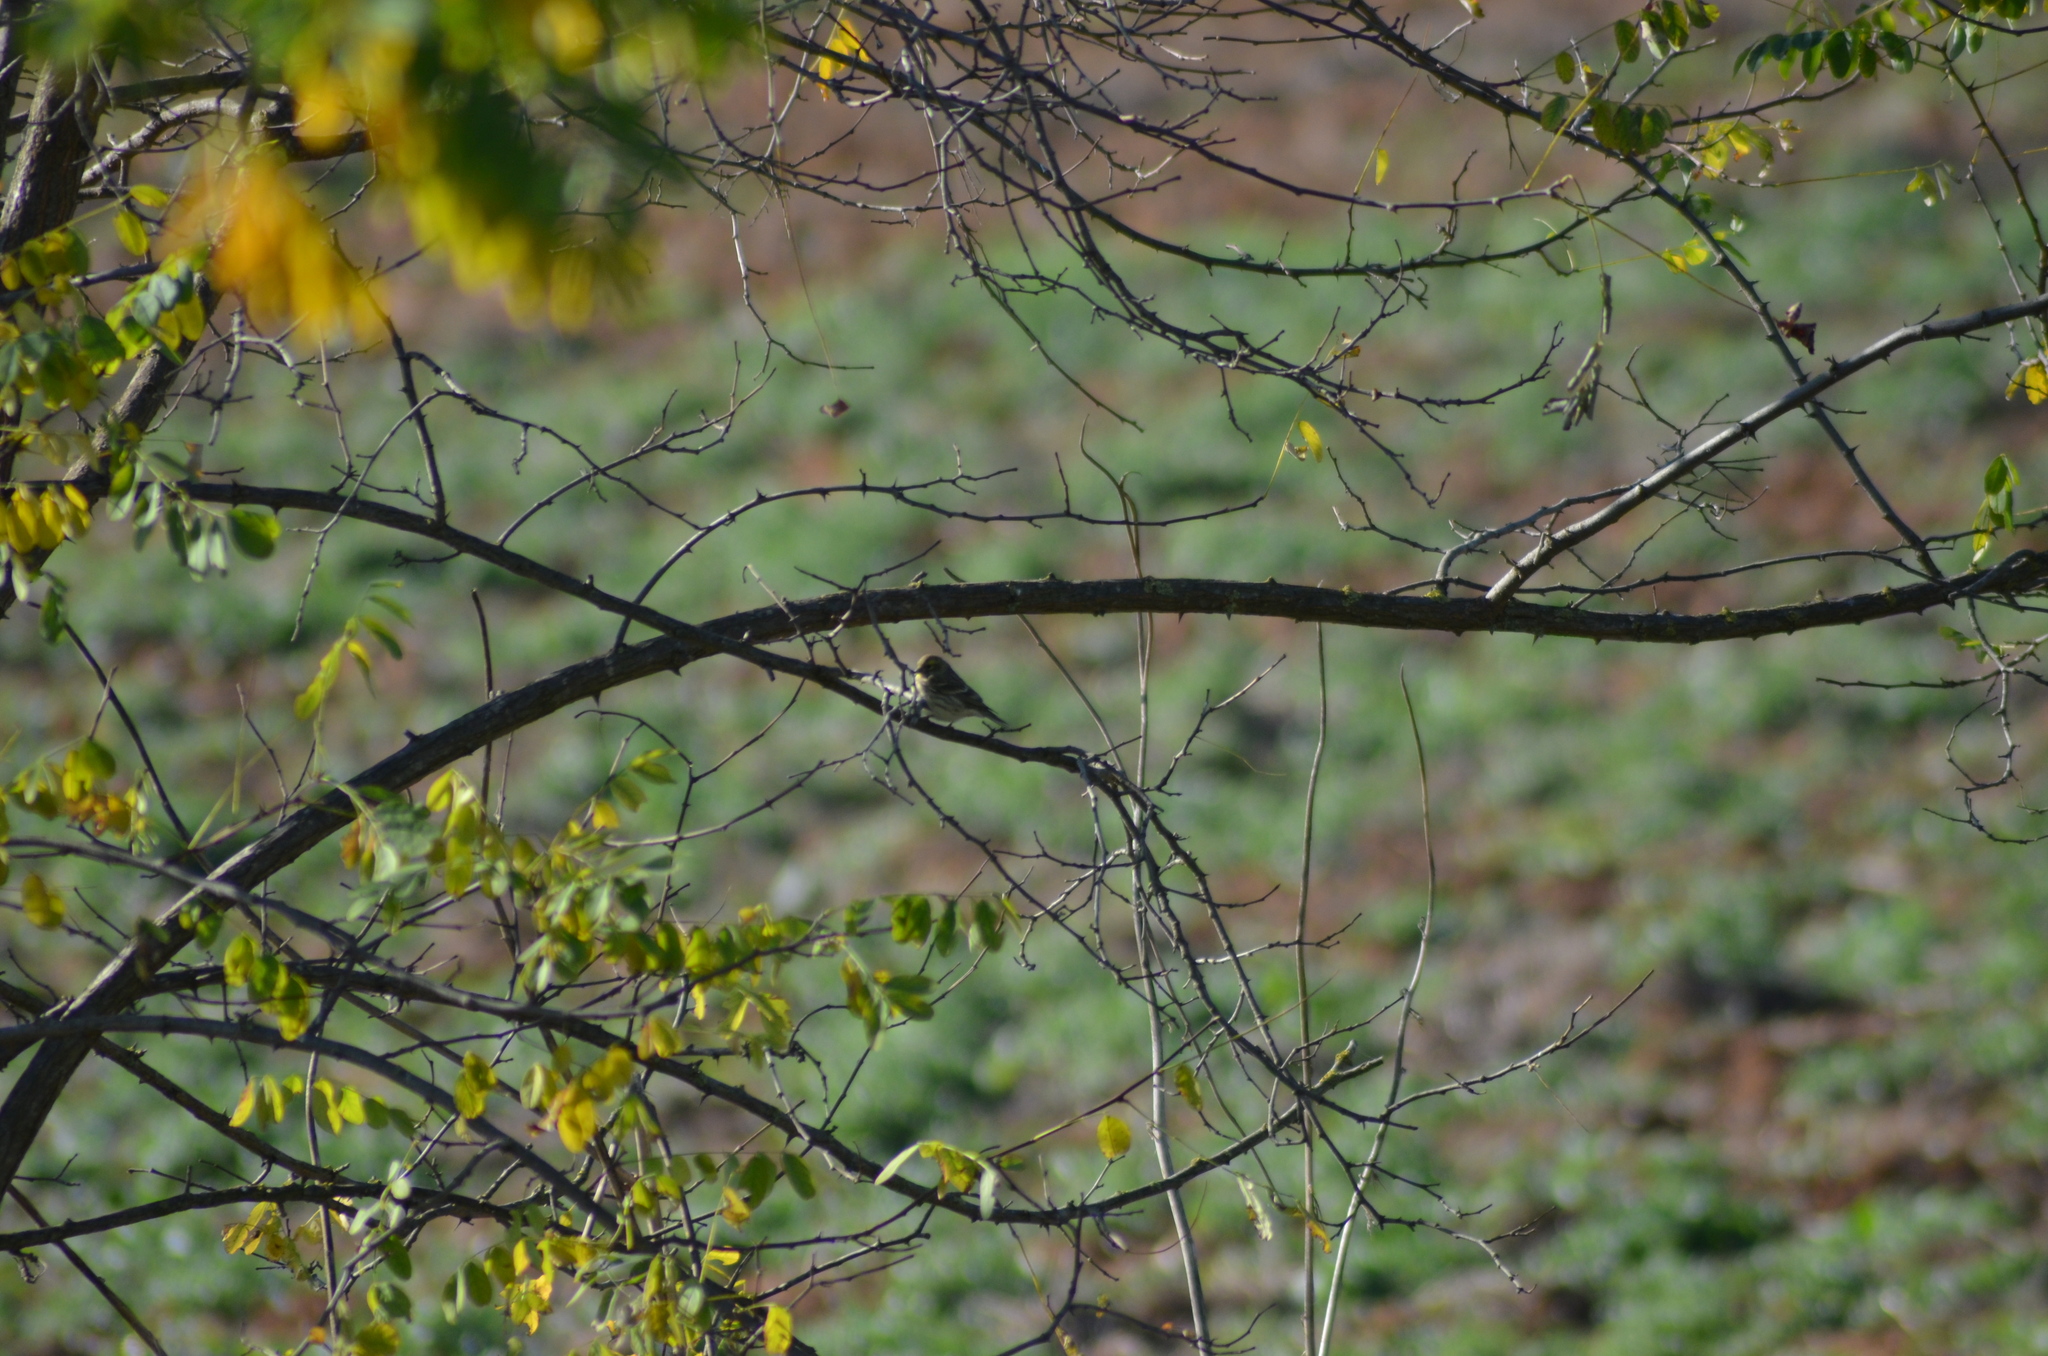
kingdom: Animalia
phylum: Chordata
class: Aves
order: Passeriformes
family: Fringillidae
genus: Serinus
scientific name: Serinus serinus
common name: European serin
